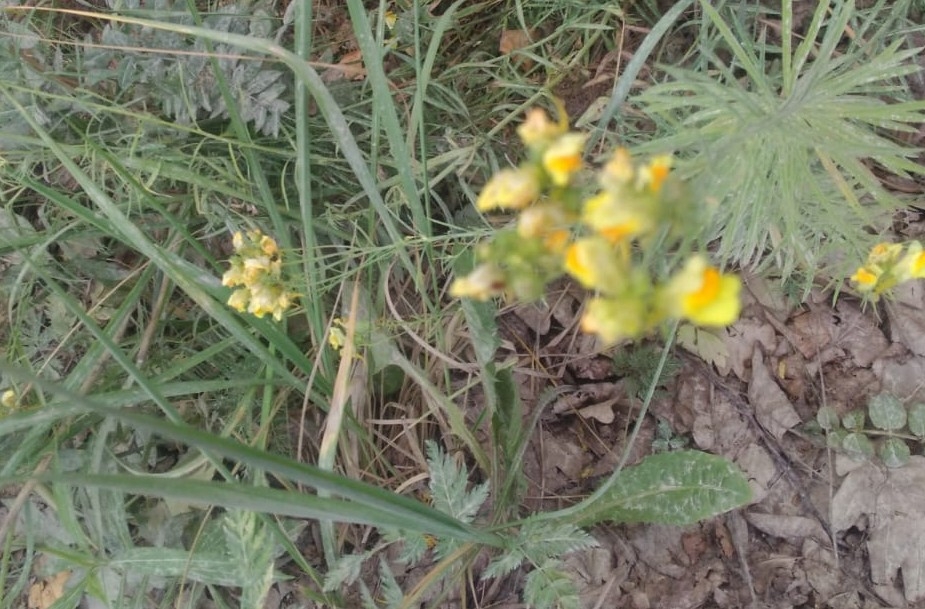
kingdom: Plantae
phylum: Tracheophyta
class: Magnoliopsida
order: Lamiales
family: Plantaginaceae
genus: Linaria
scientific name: Linaria vulgaris
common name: Butter and eggs
